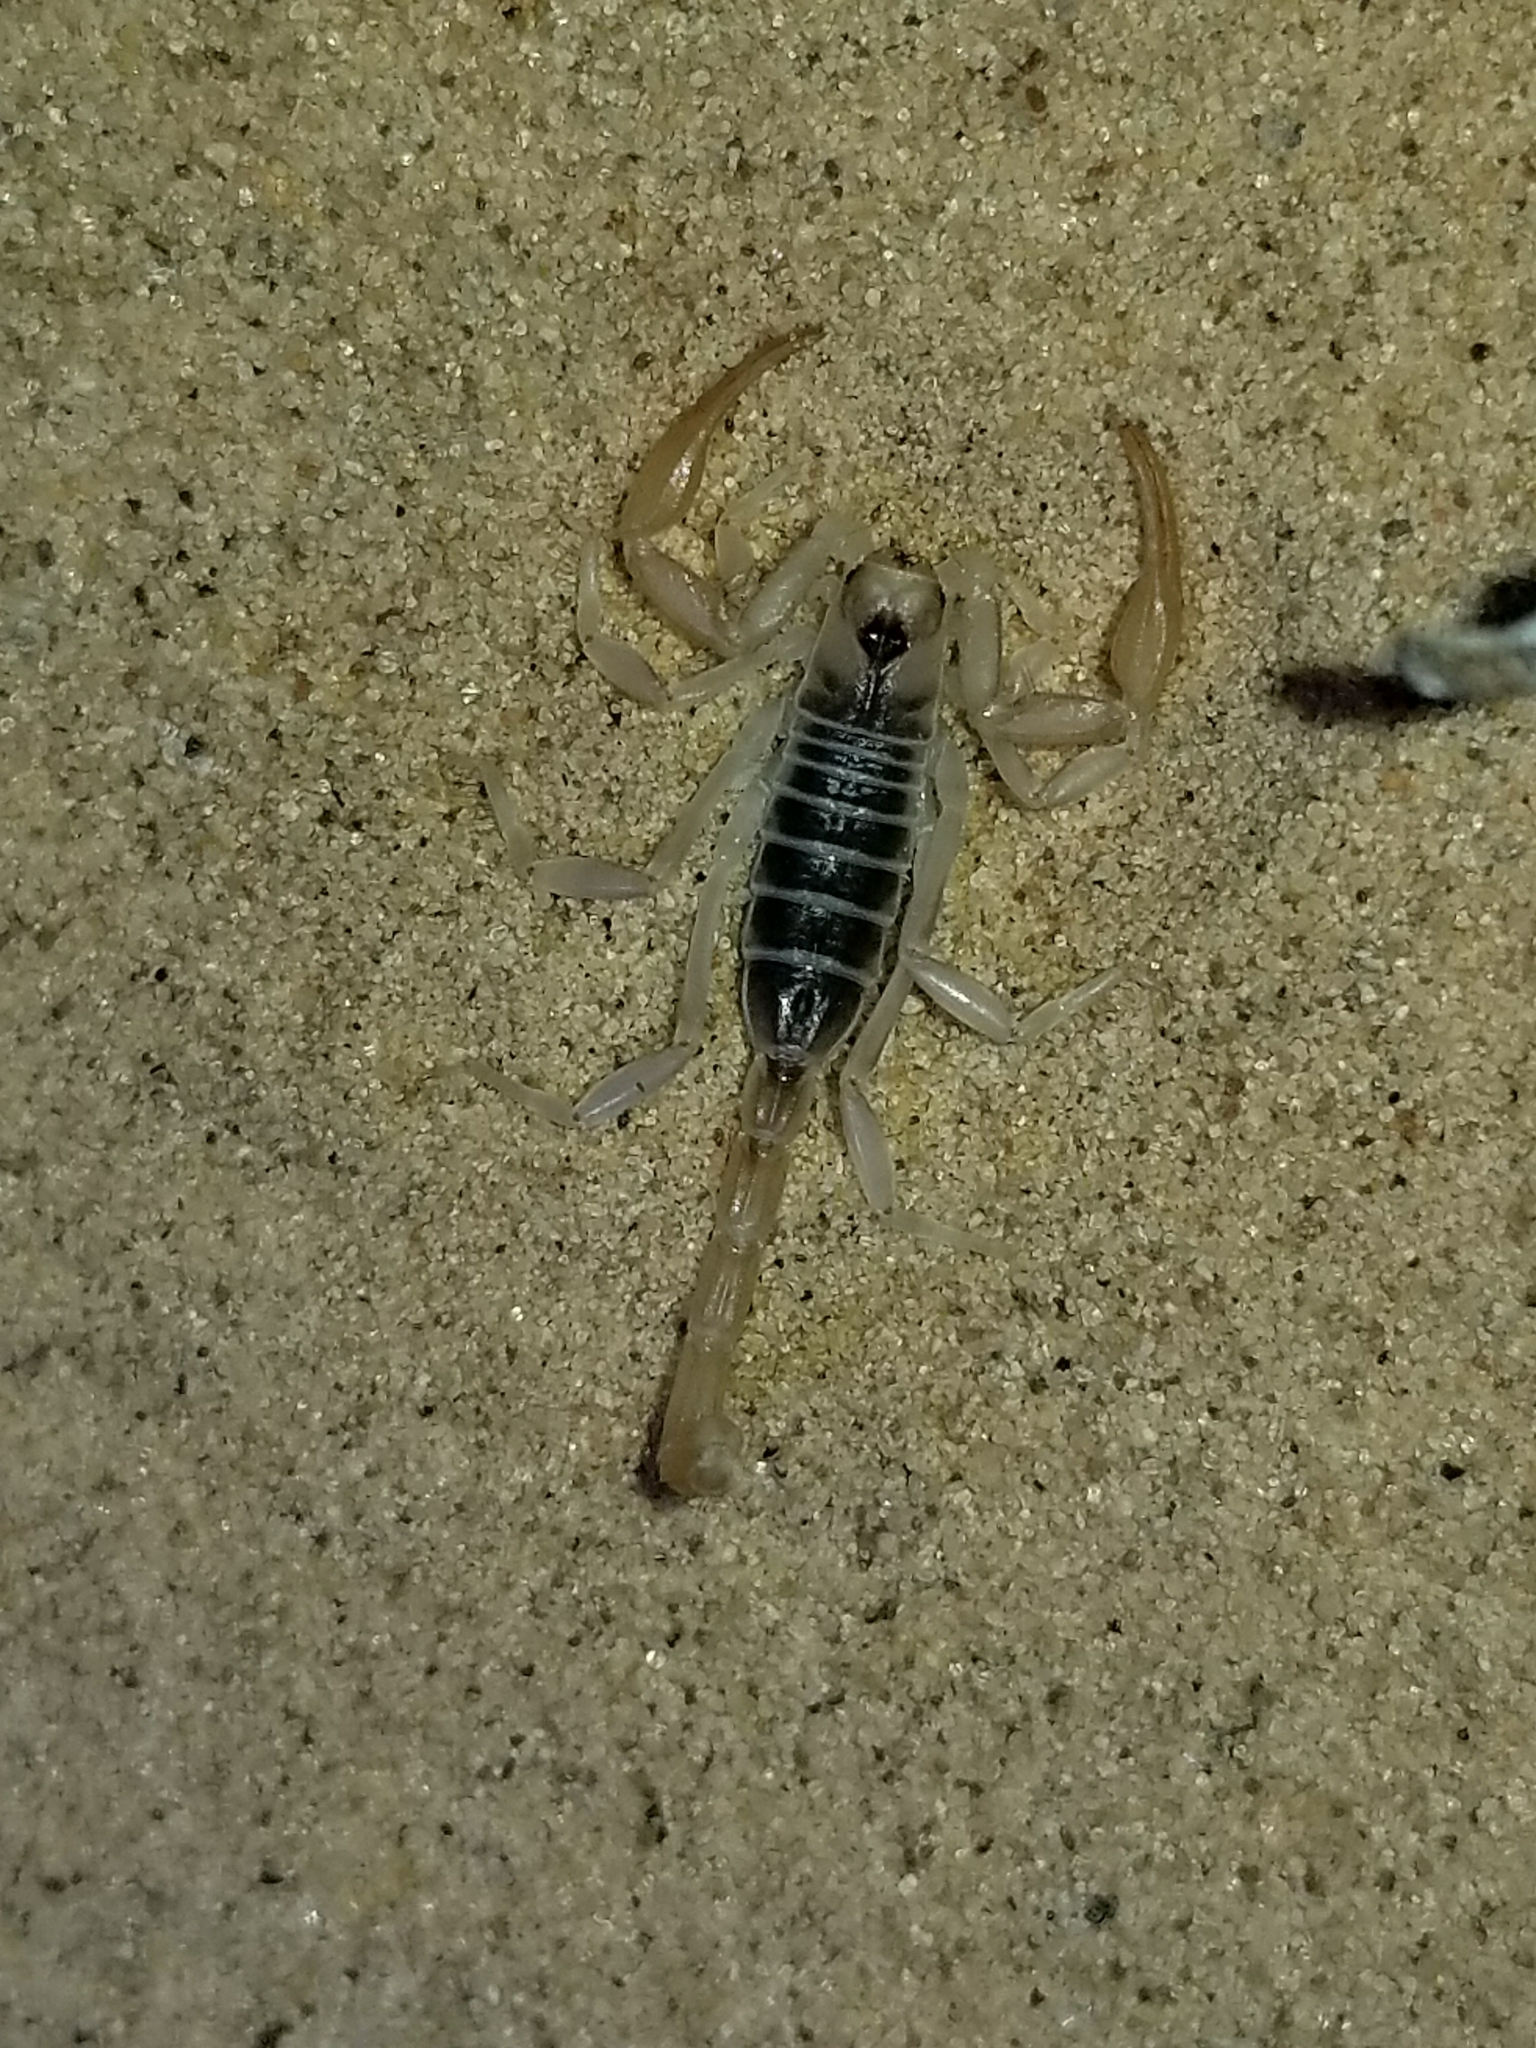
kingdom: Animalia
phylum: Arthropoda
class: Arachnida
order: Scorpiones
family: Vaejovidae
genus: Smeringurus
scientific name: Smeringurus mesaensis
